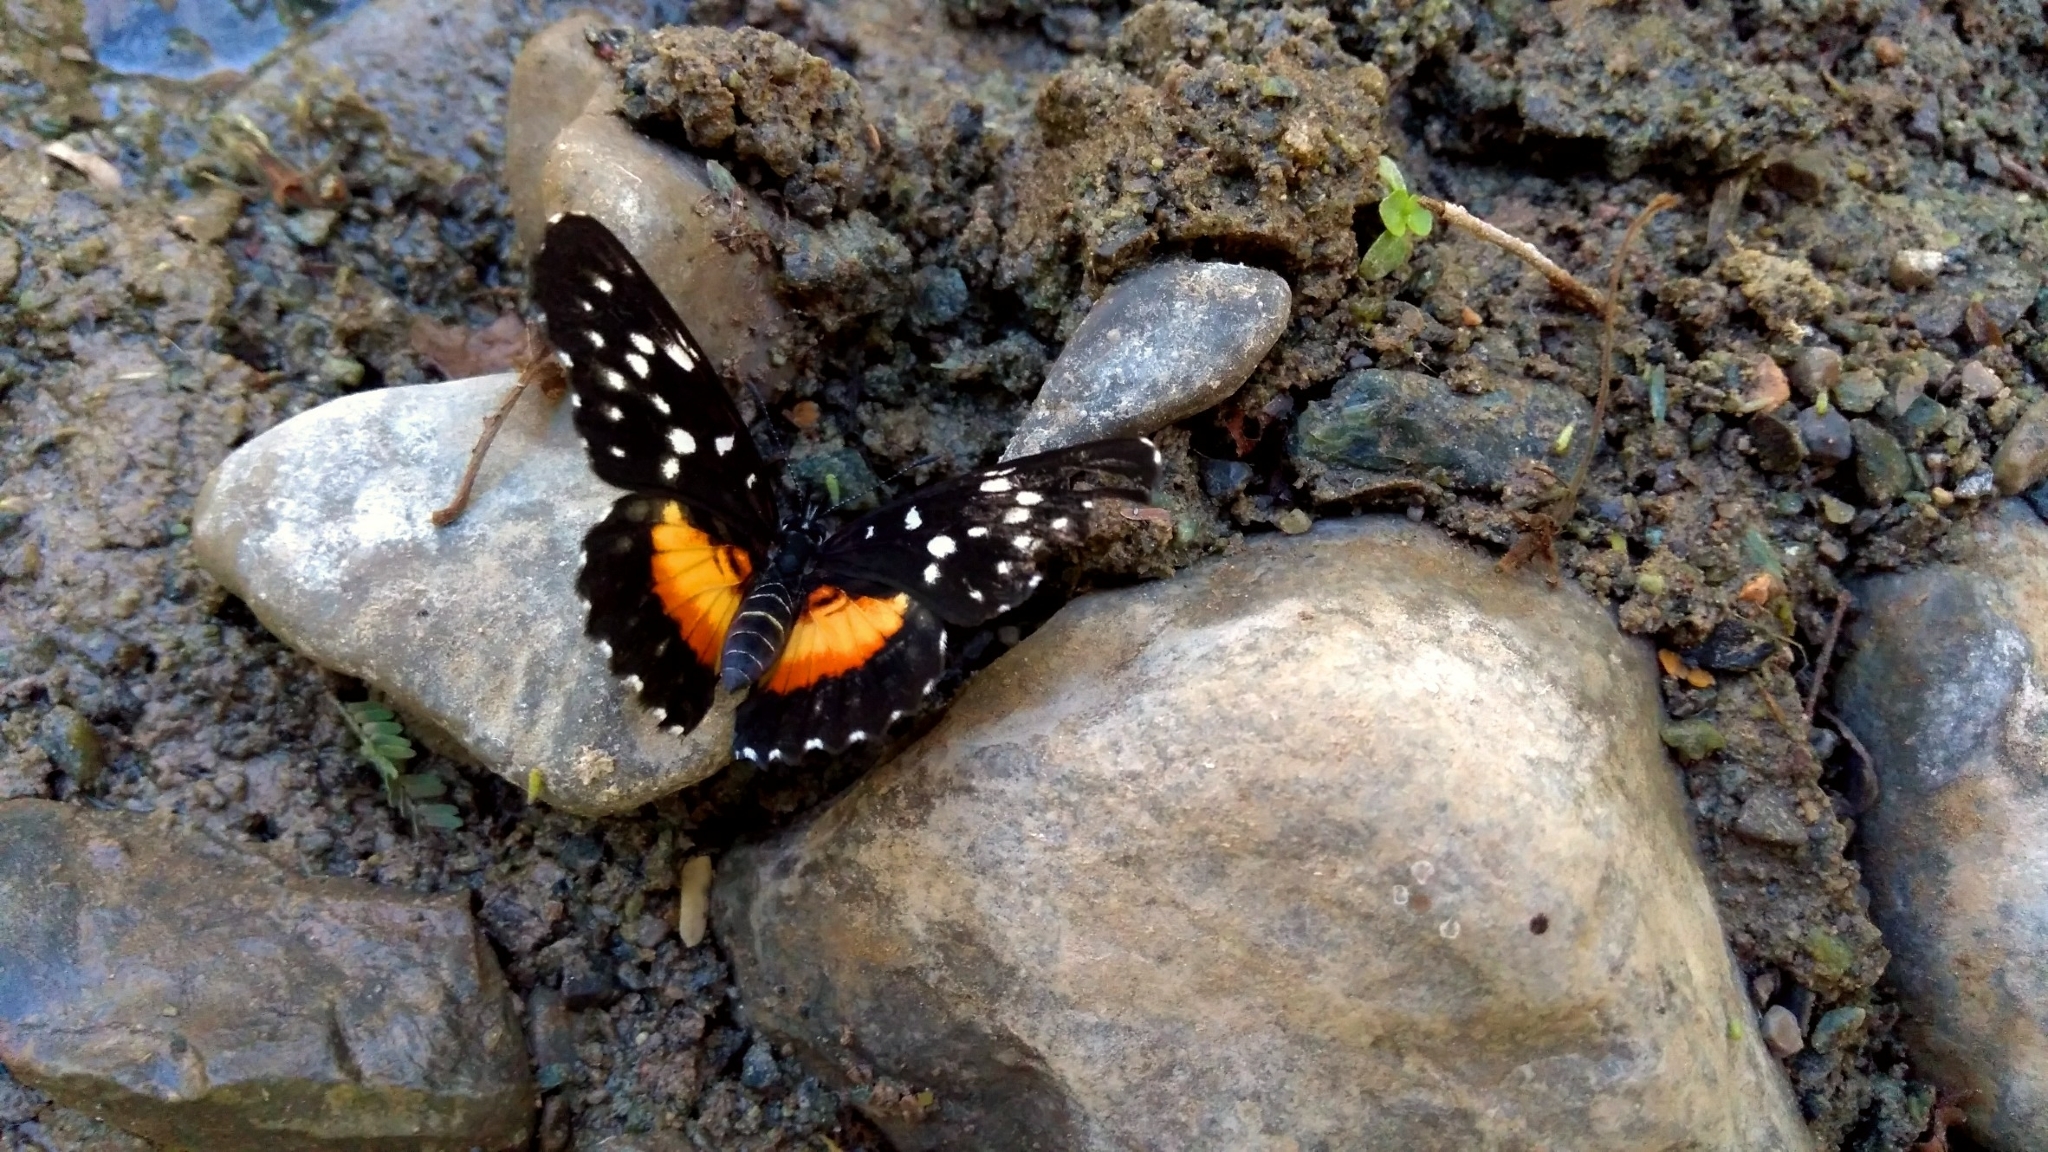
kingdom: Animalia
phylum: Arthropoda
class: Insecta
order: Lepidoptera
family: Nymphalidae
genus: Chlosyne
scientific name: Chlosyne rosita
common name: Rosita patch
